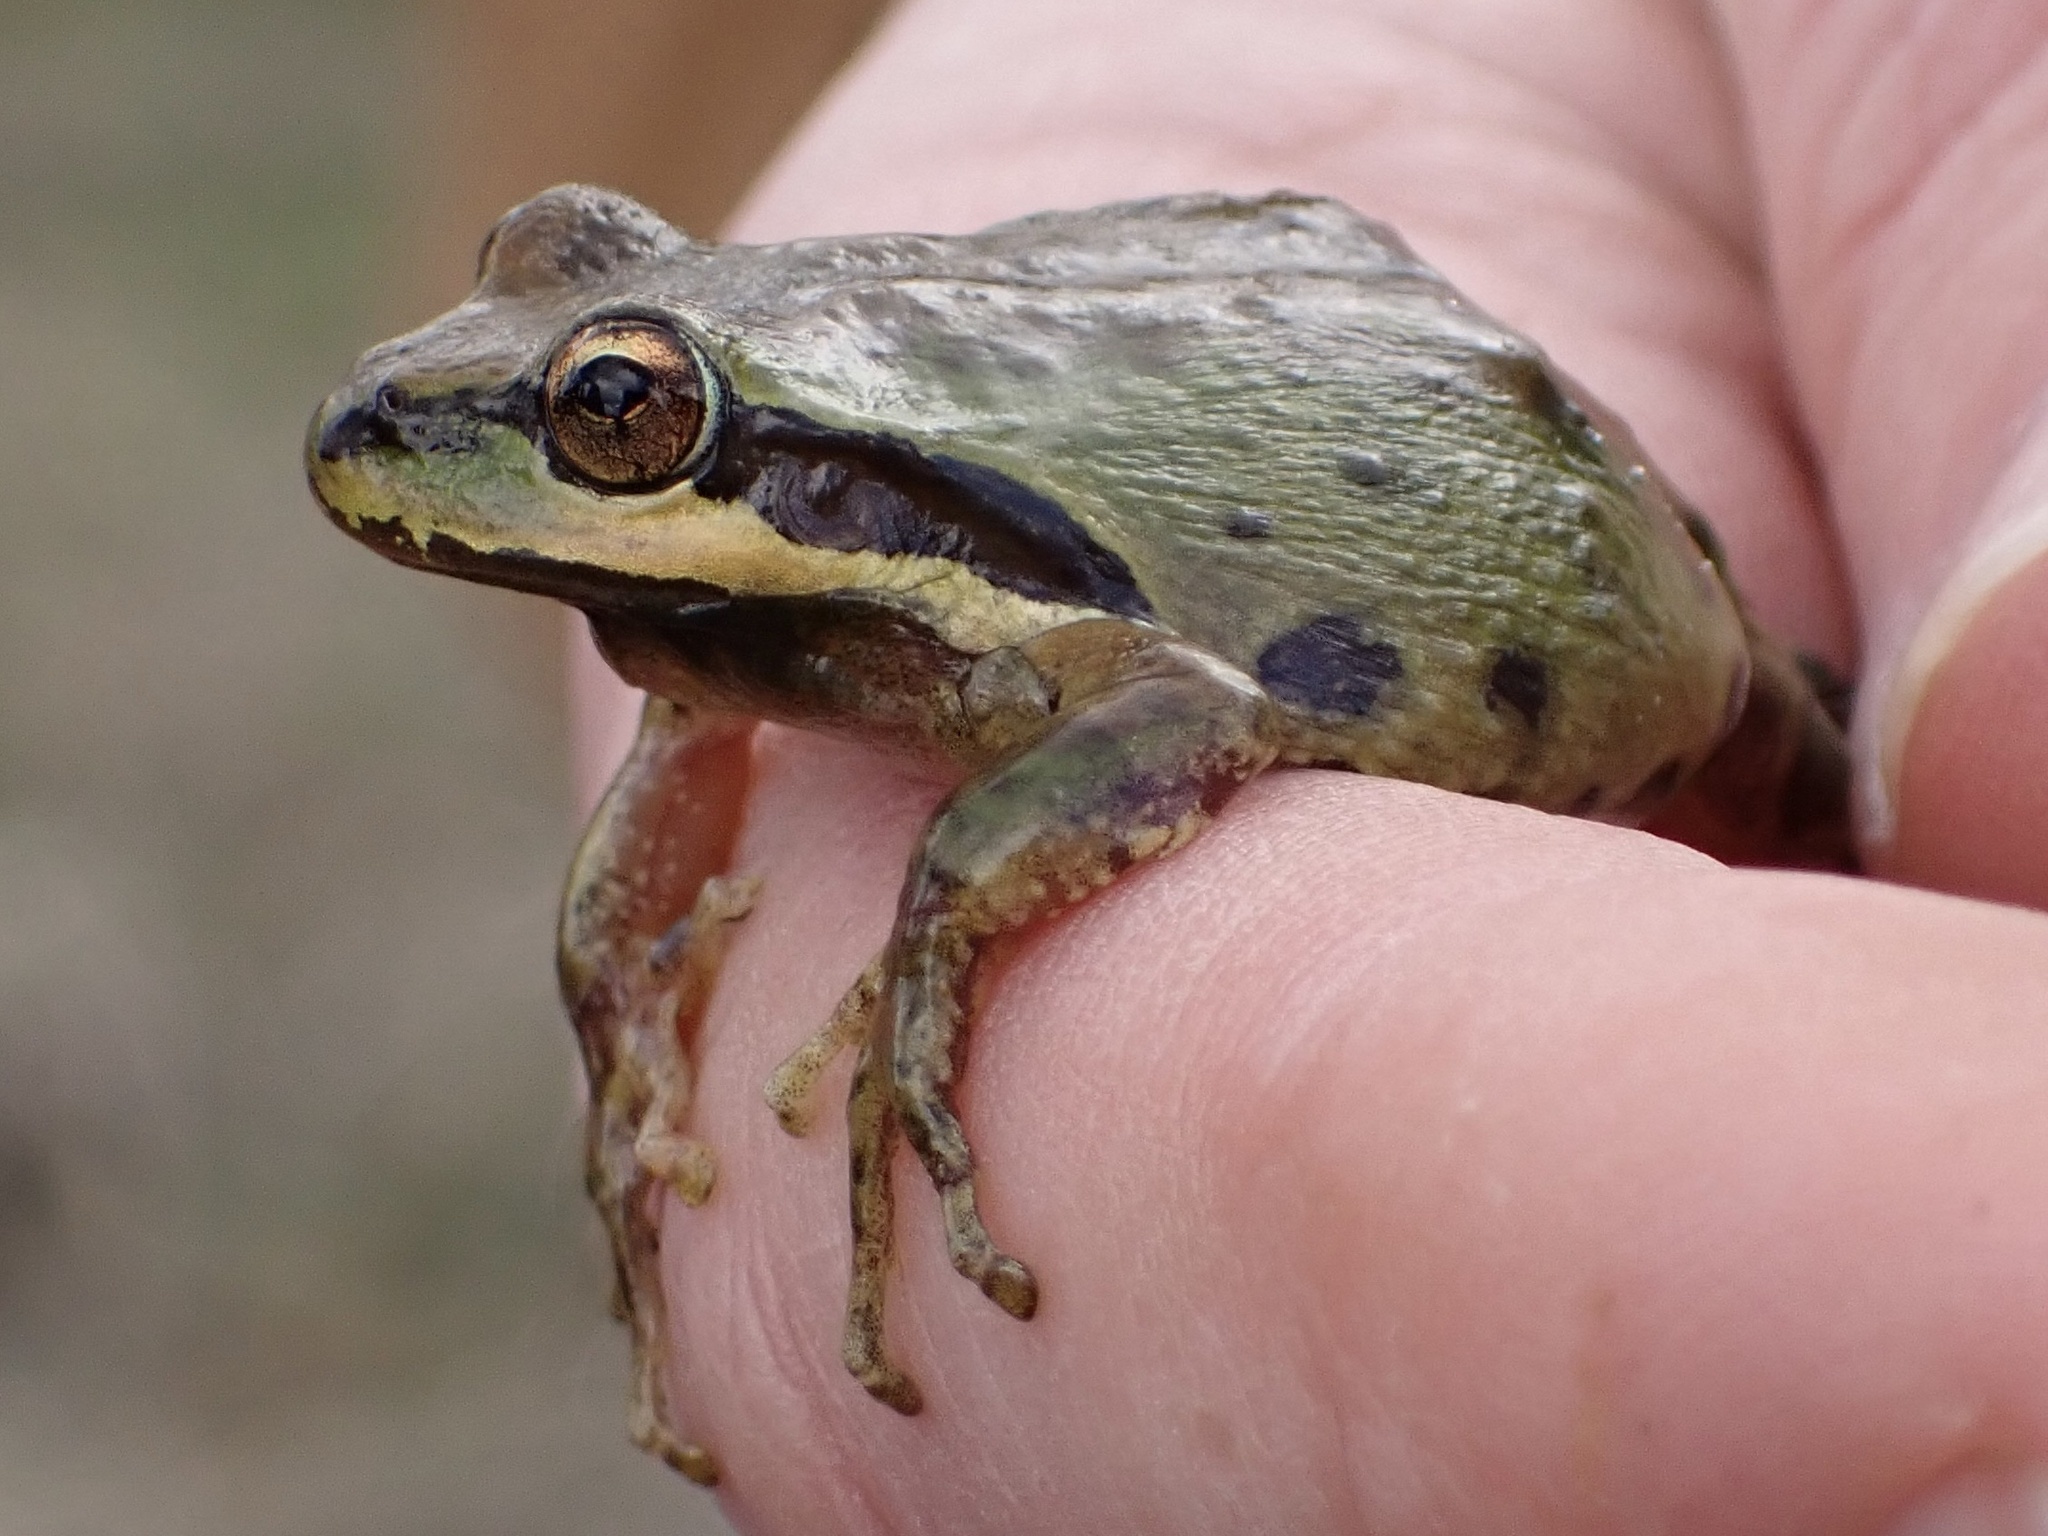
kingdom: Animalia
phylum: Chordata
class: Amphibia
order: Anura
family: Hylidae
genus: Pseudacris
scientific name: Pseudacris regilla
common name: Pacific chorus frog
